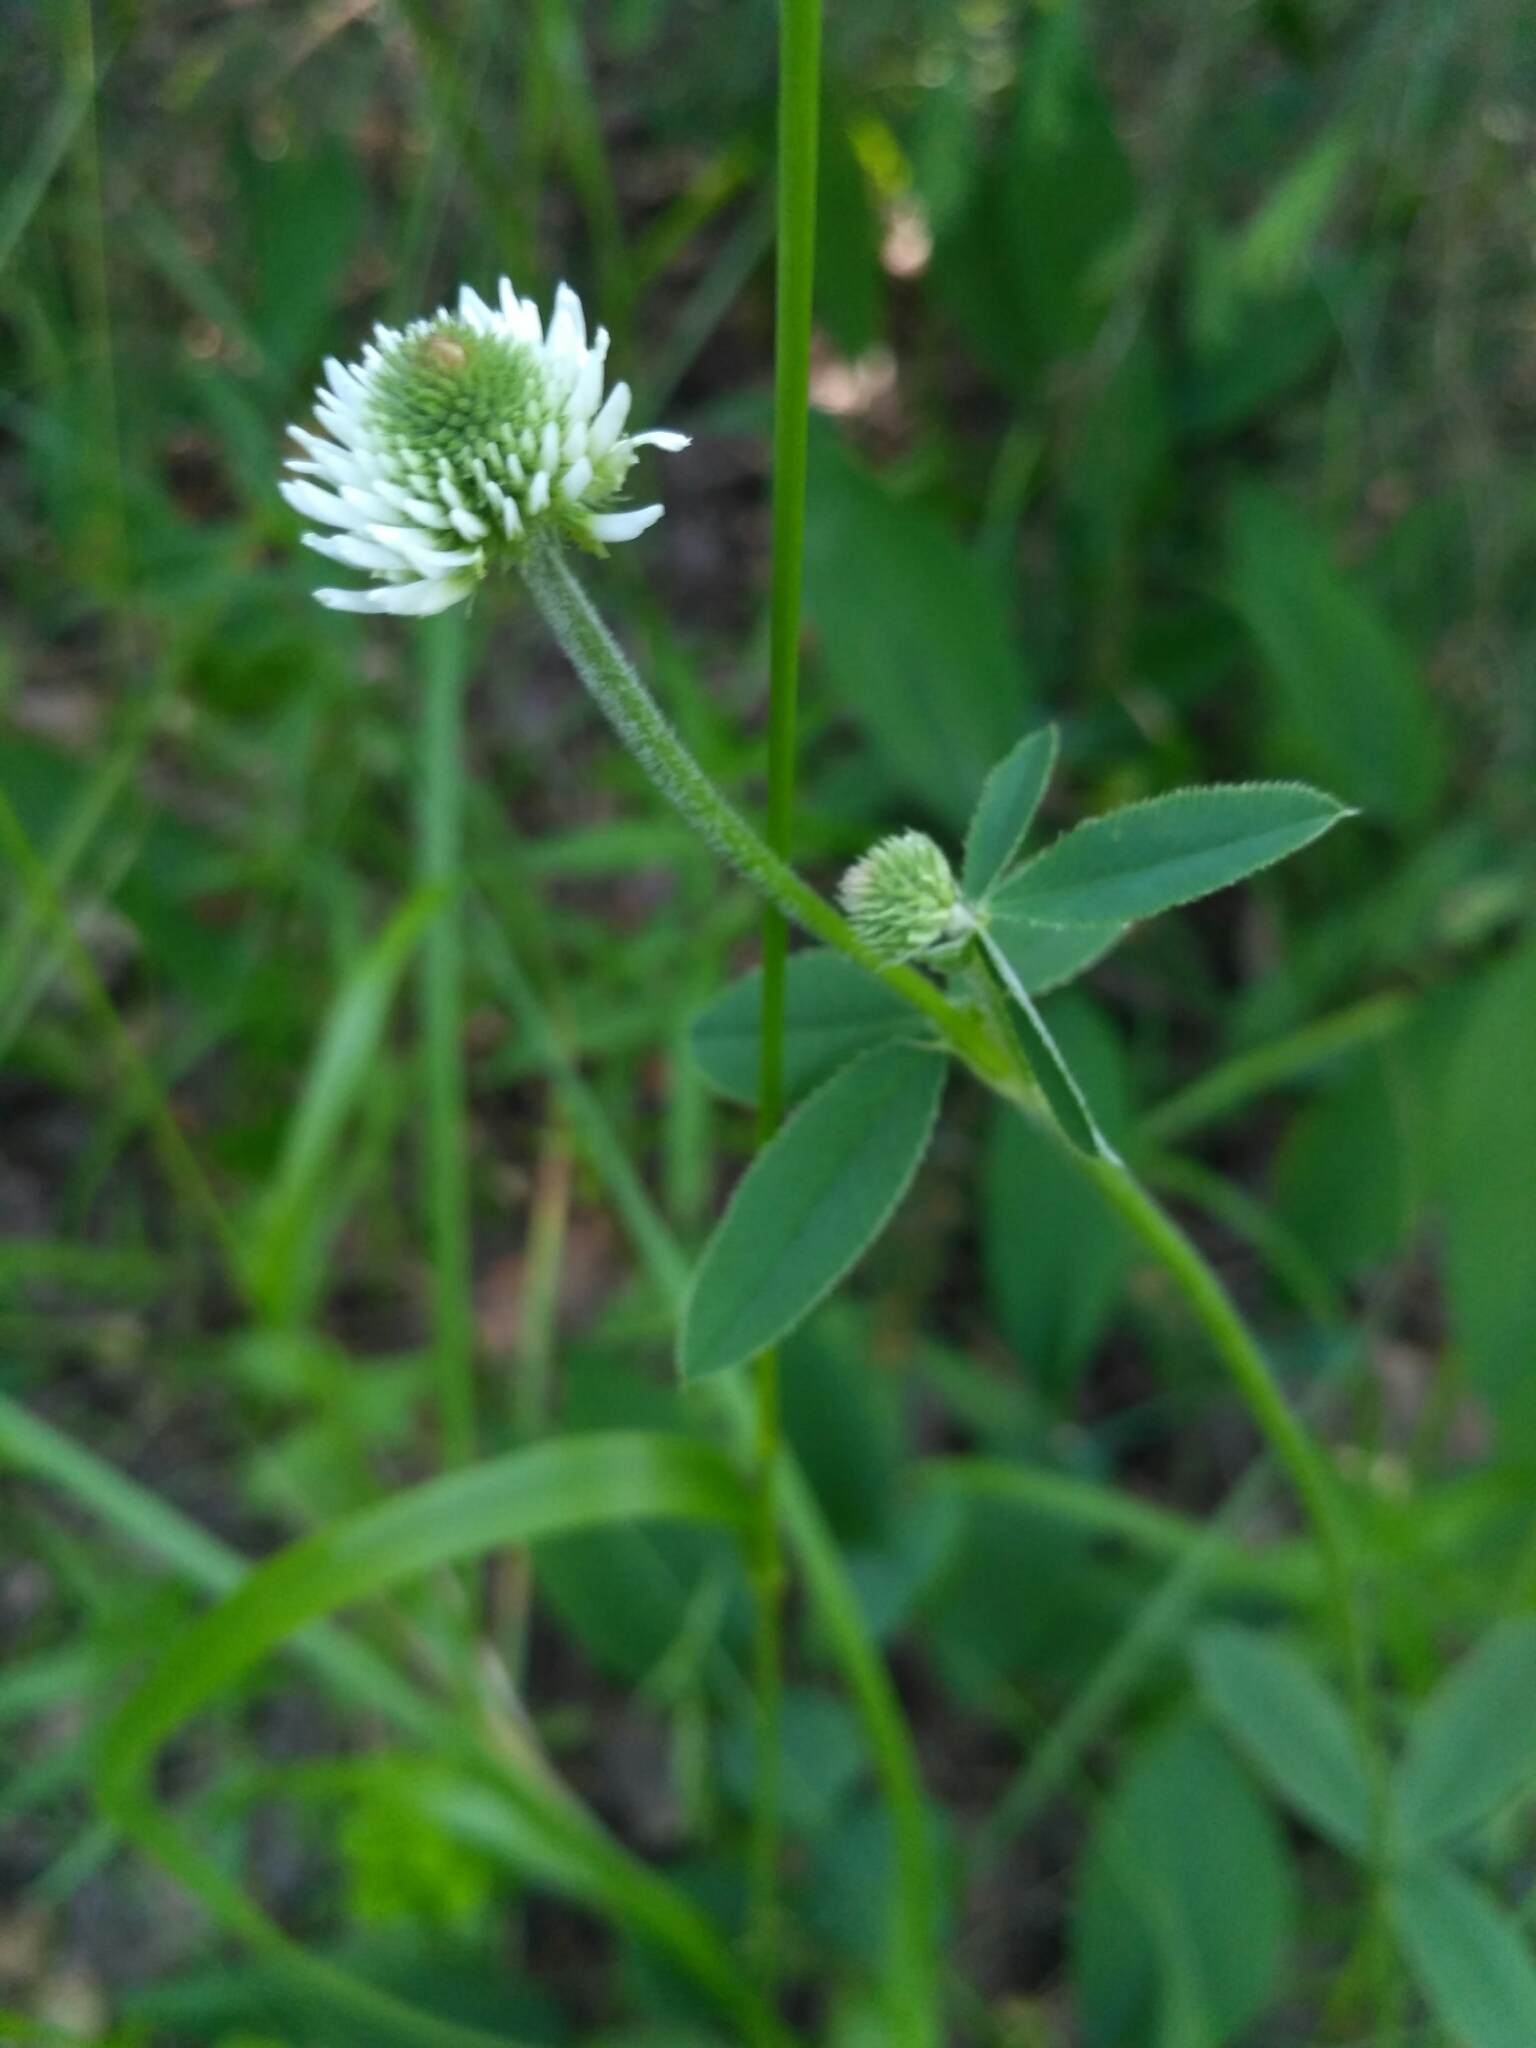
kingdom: Plantae
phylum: Tracheophyta
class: Magnoliopsida
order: Fabales
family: Fabaceae
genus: Trifolium
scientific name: Trifolium montanum
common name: Mountain clover
